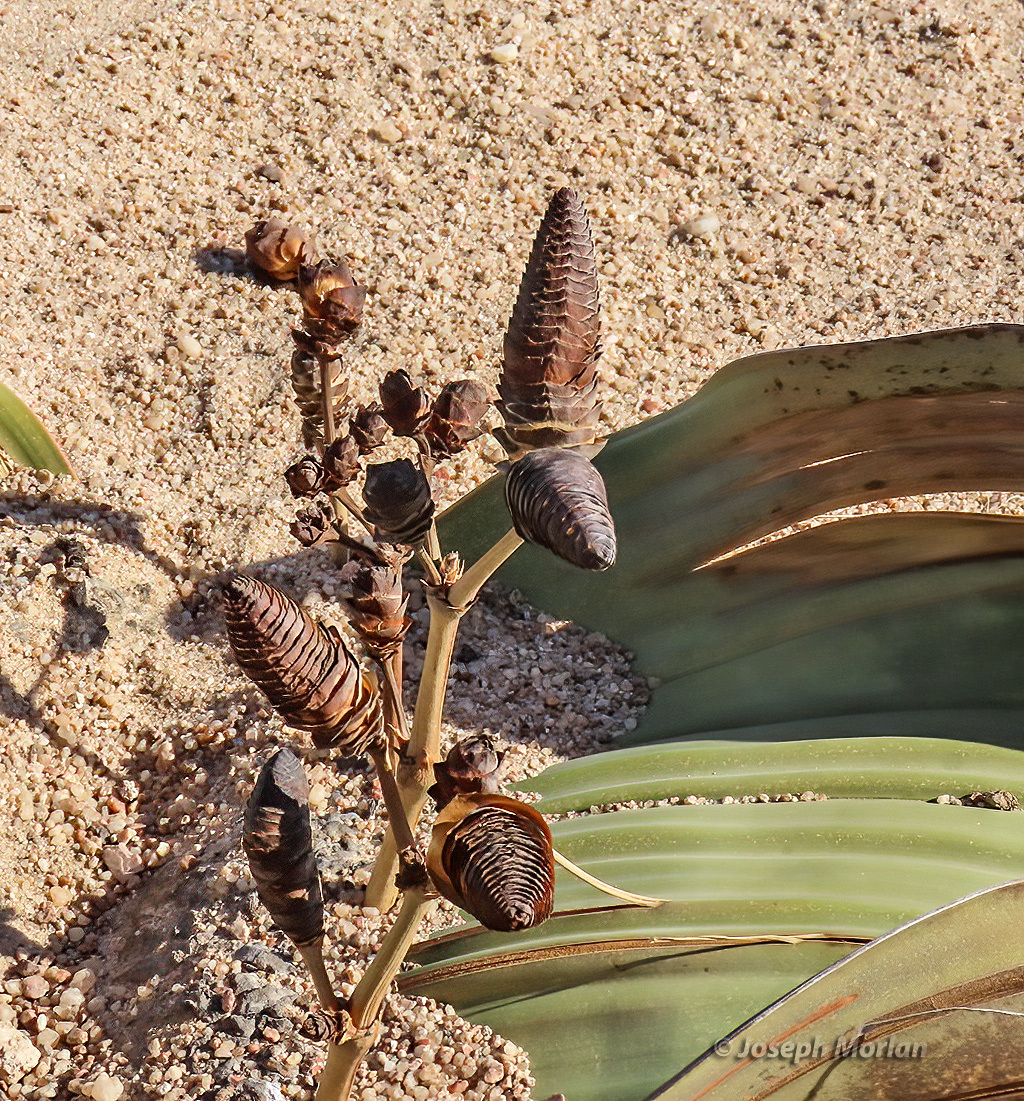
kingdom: Plantae
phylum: Tracheophyta
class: Gnetopsida
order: Welwitschiales
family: Welwitschiaceae
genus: Welwitschia
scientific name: Welwitschia mirabilis
